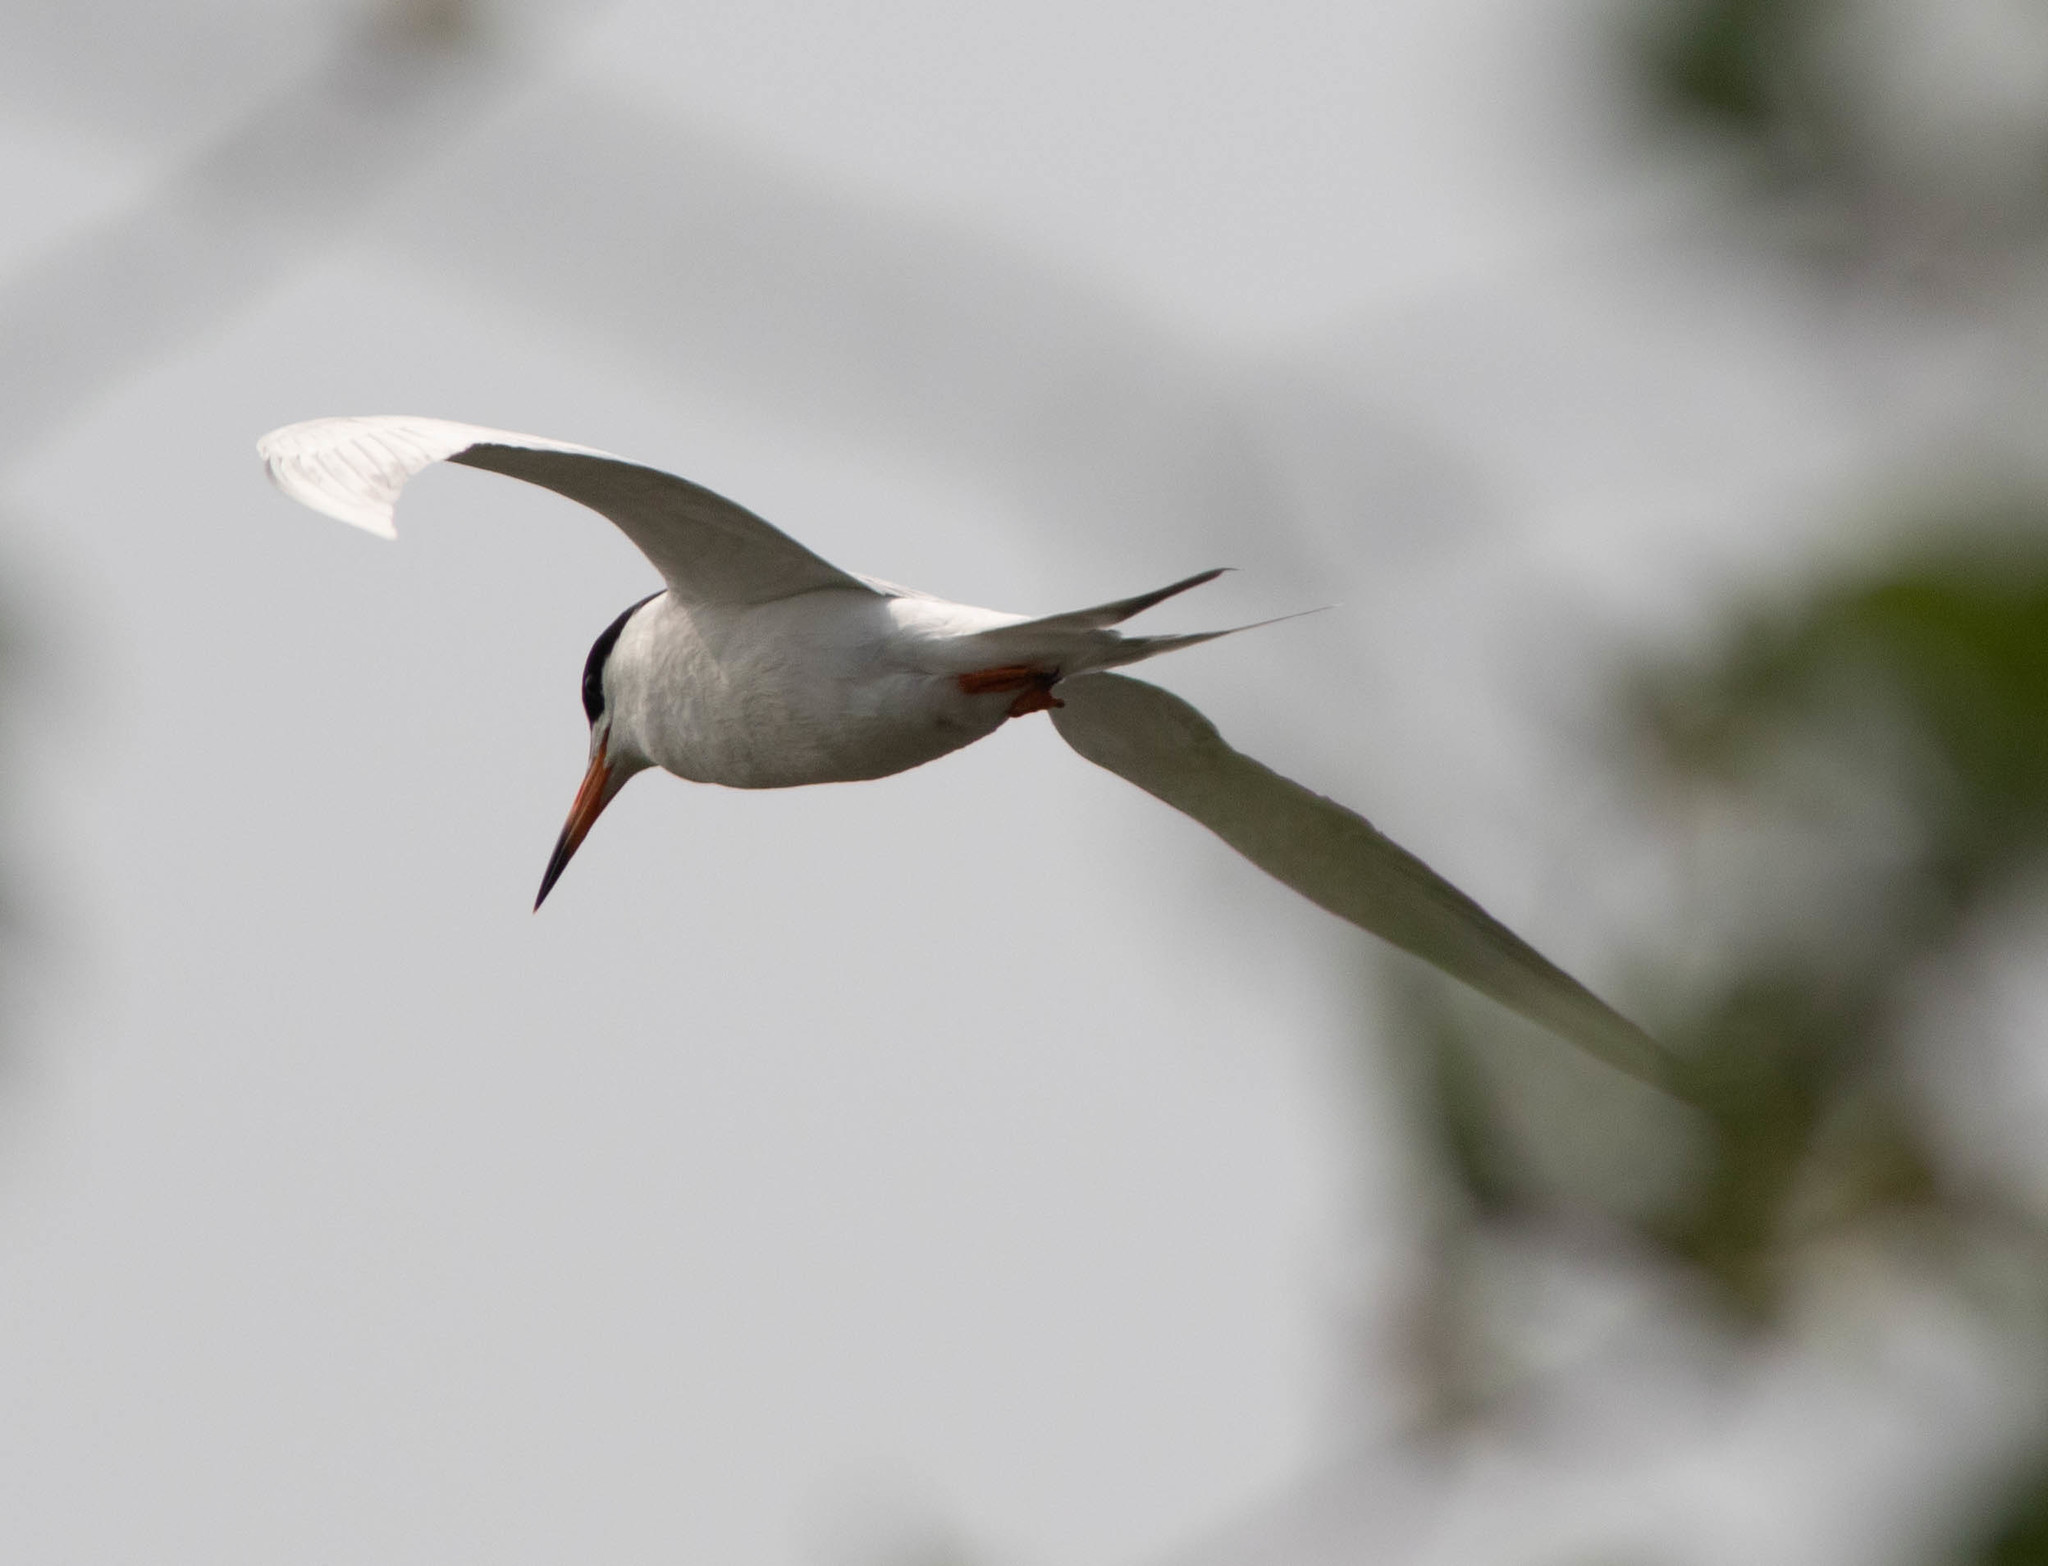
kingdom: Animalia
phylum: Chordata
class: Aves
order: Charadriiformes
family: Laridae
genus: Sterna
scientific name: Sterna forsteri
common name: Forster's tern
